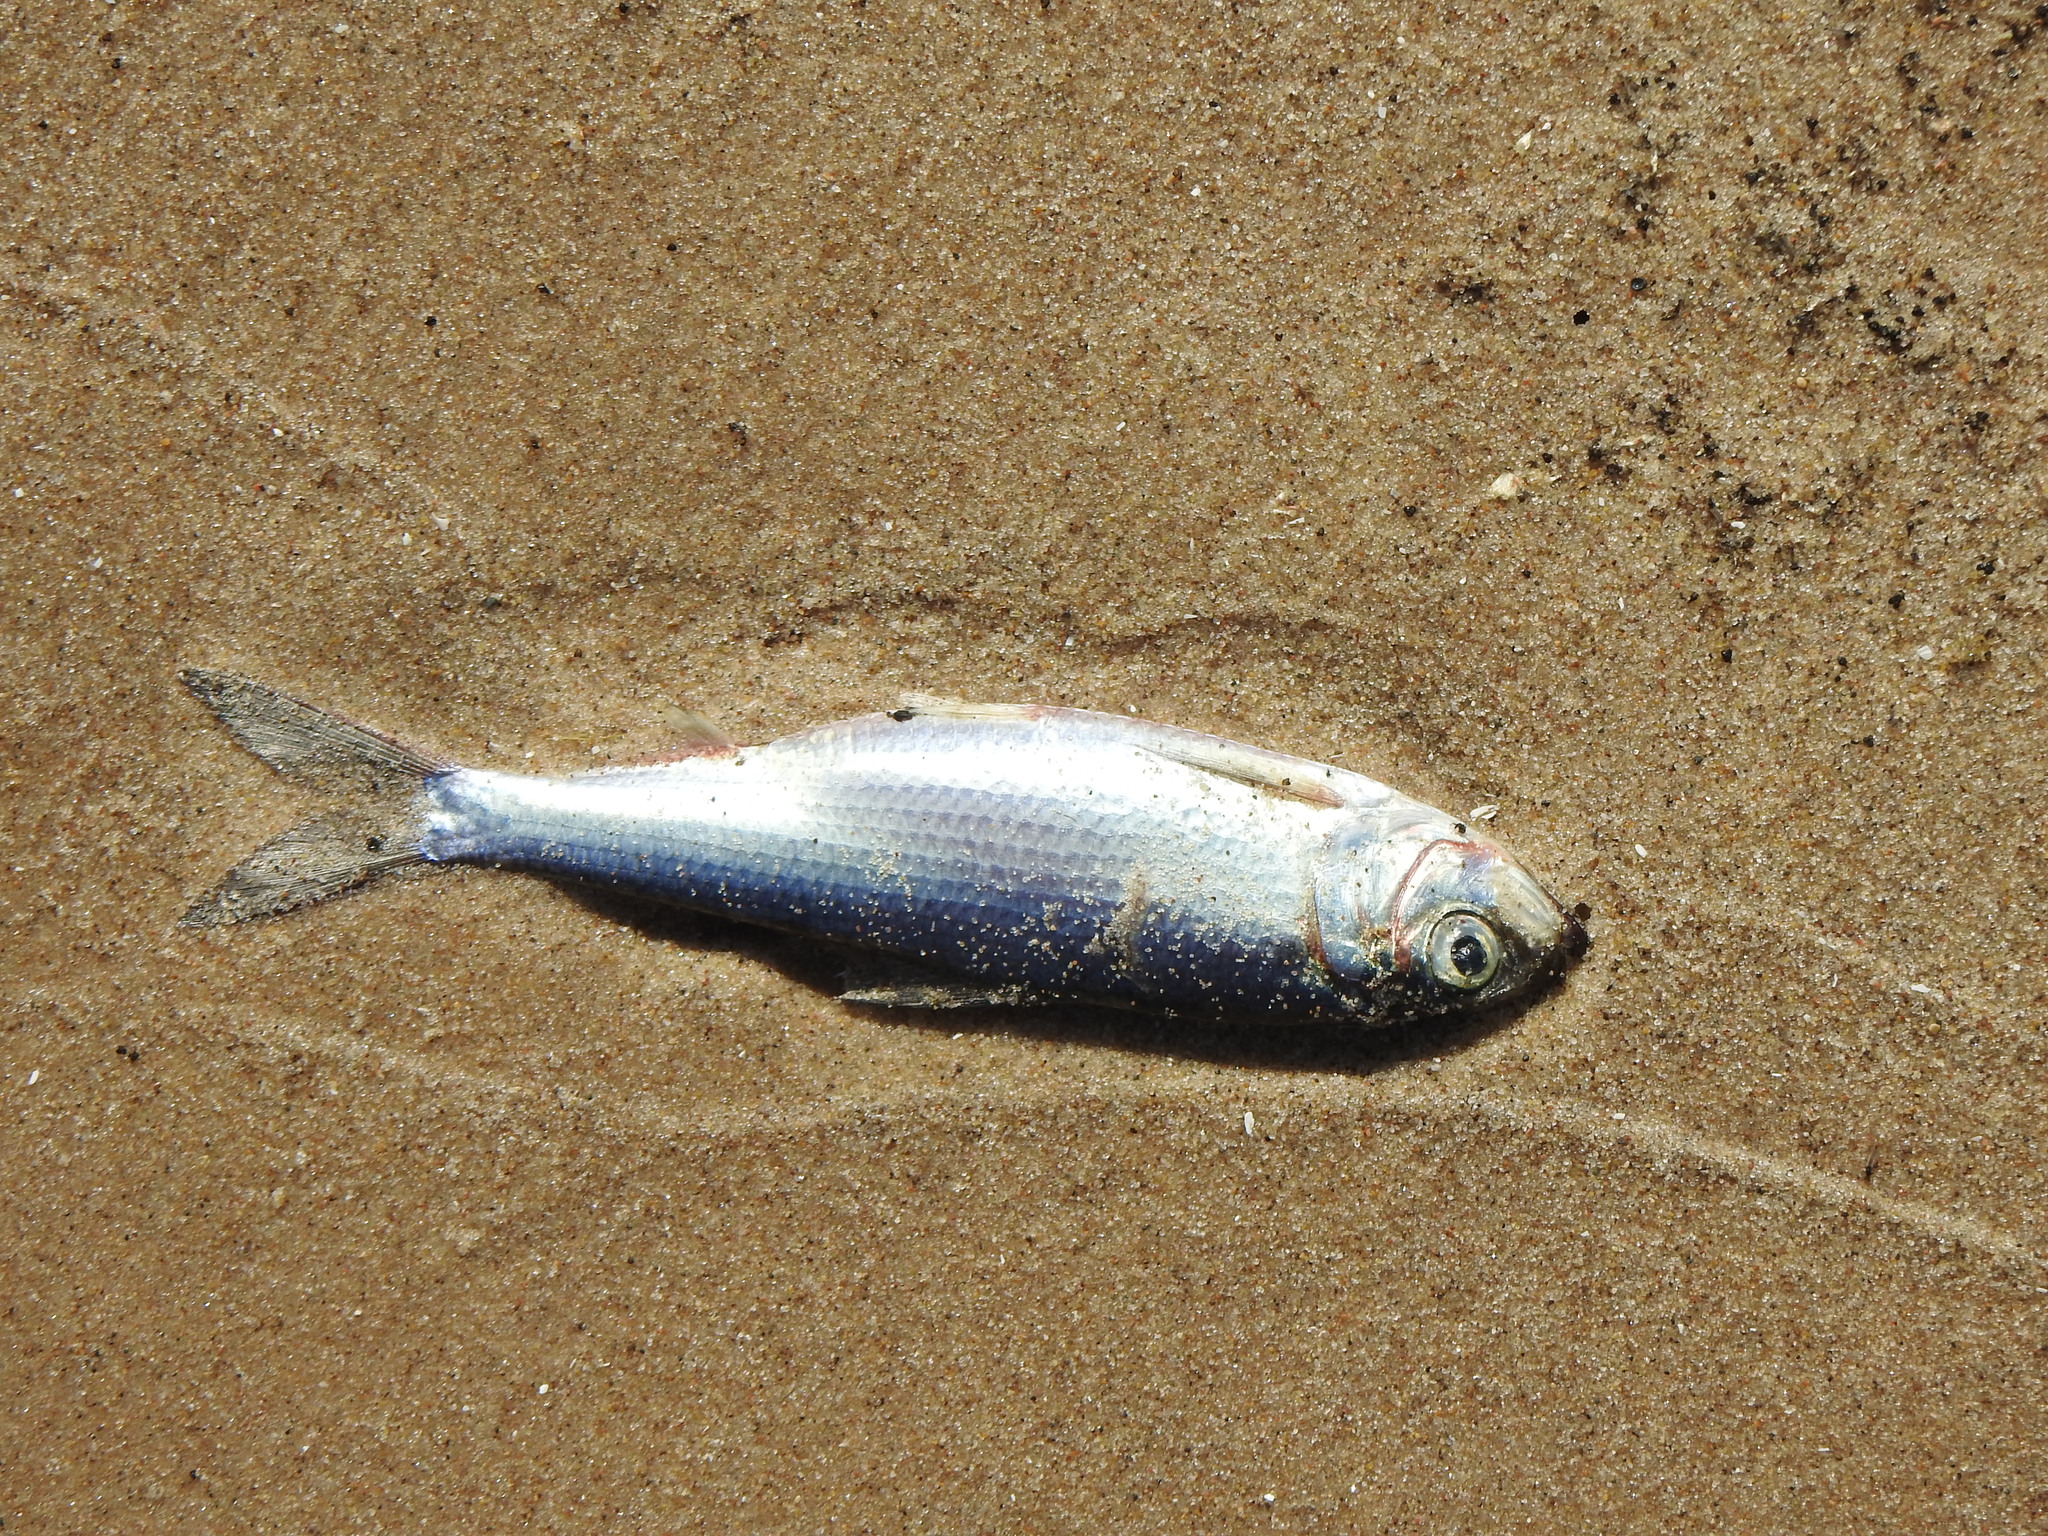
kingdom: Animalia
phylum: Chordata
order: Clupeiformes
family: Clupeidae
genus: Alosa
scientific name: Alosa pseudoharengus
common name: Alewife
